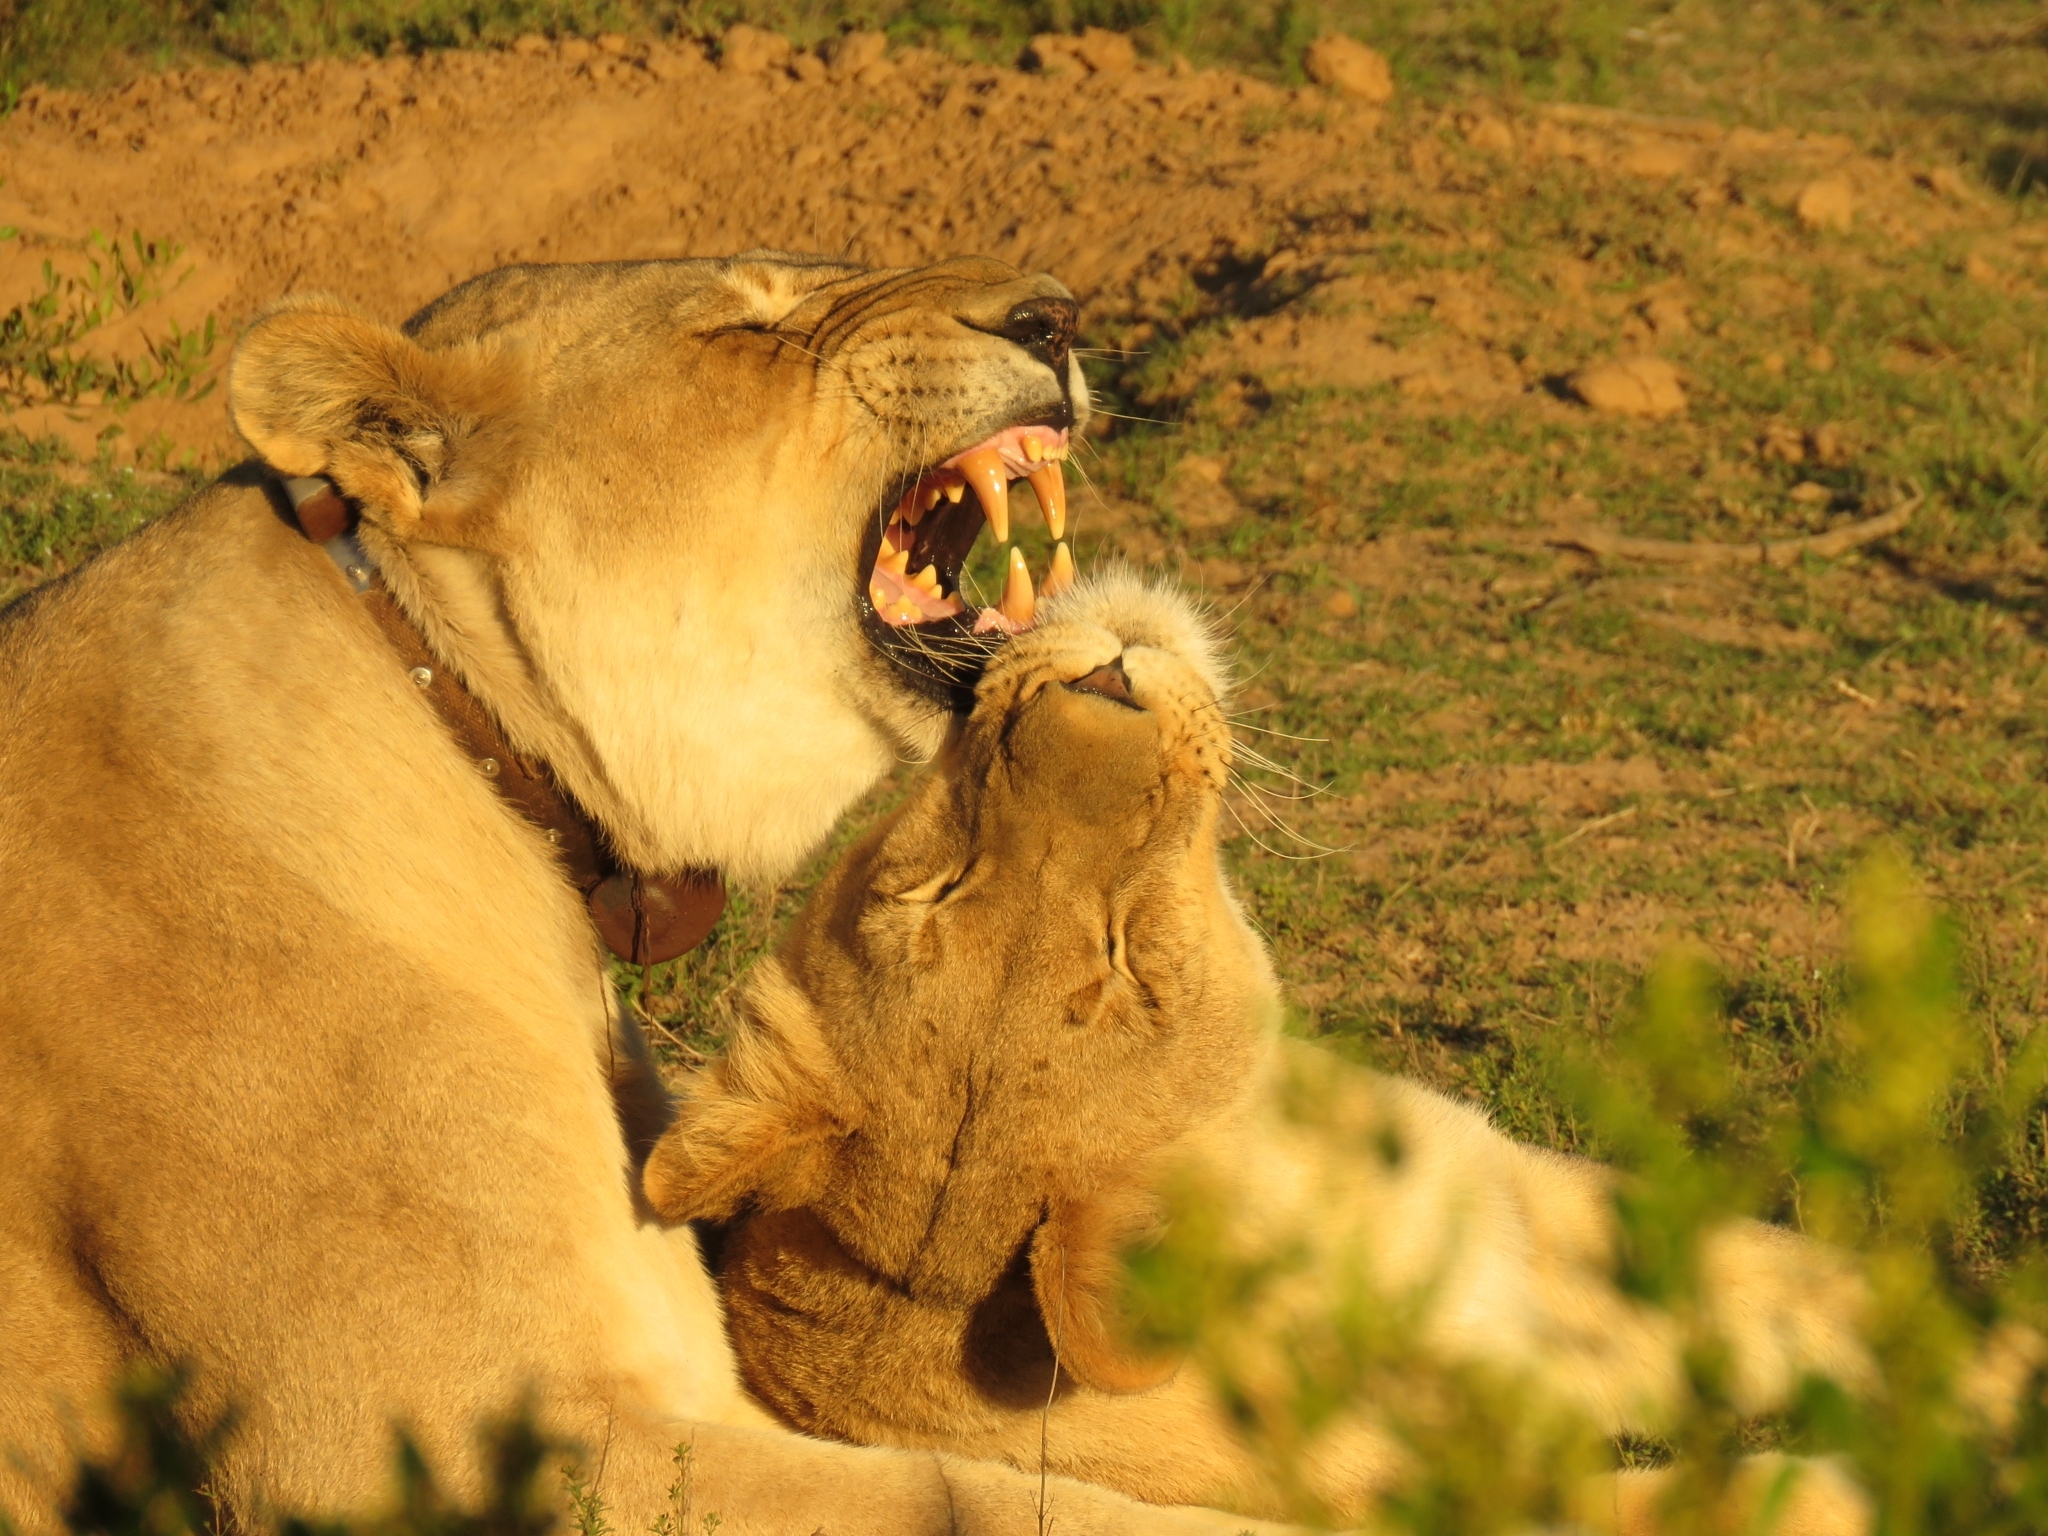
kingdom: Animalia
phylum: Chordata
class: Mammalia
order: Carnivora
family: Felidae
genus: Panthera
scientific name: Panthera leo
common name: Lion
